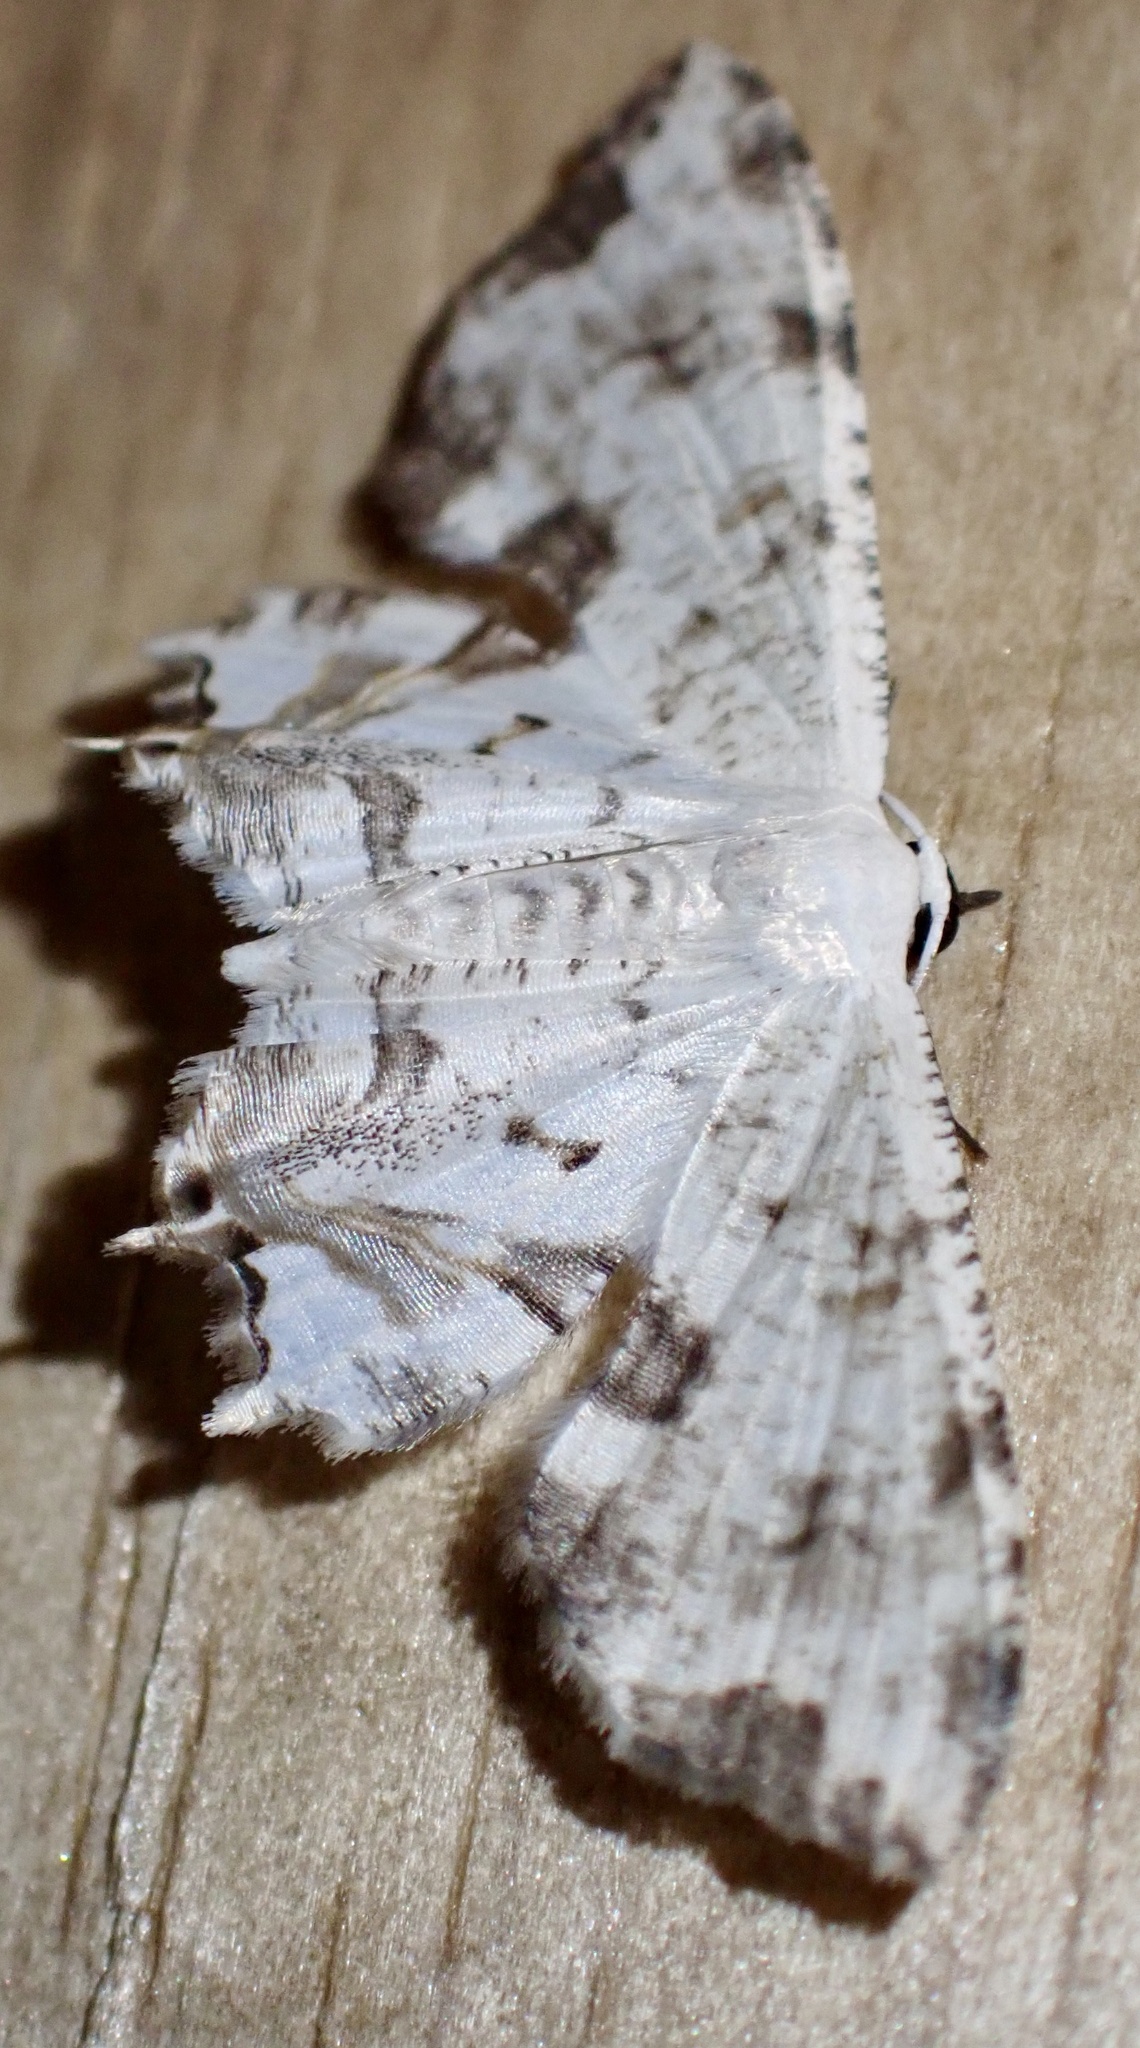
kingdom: Animalia
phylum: Arthropoda
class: Insecta
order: Lepidoptera
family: Uraniidae
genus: Dysaethria
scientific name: Dysaethria conflictaria
